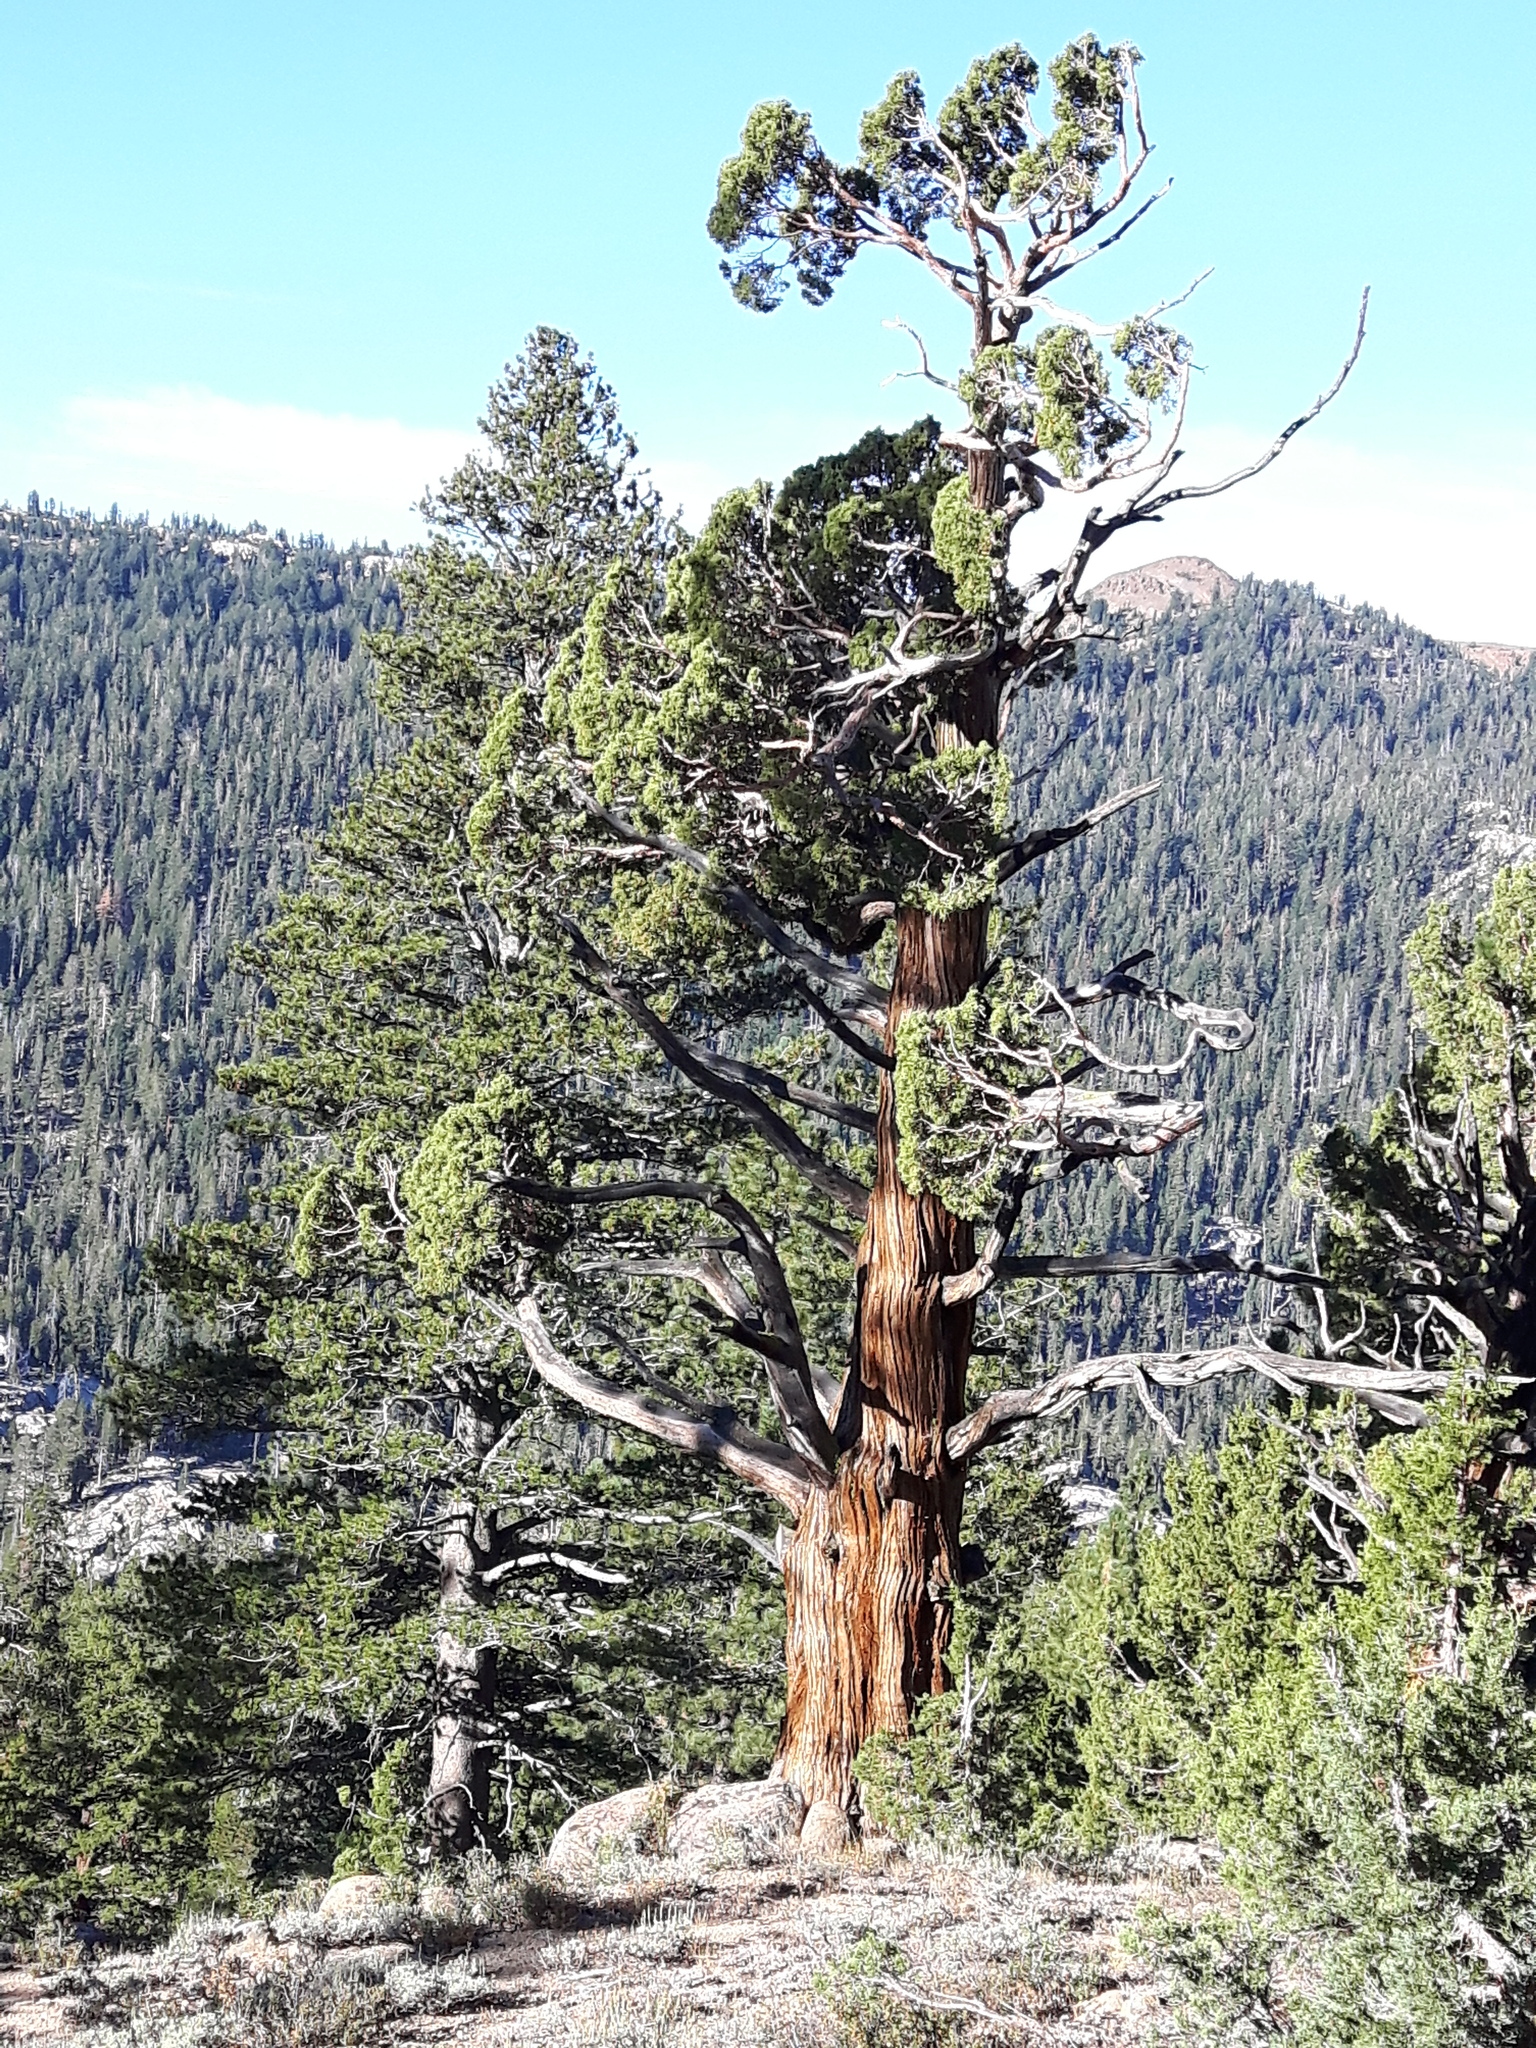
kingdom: Plantae
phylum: Tracheophyta
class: Pinopsida
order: Pinales
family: Cupressaceae
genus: Juniperus
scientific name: Juniperus occidentalis
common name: Western juniper
